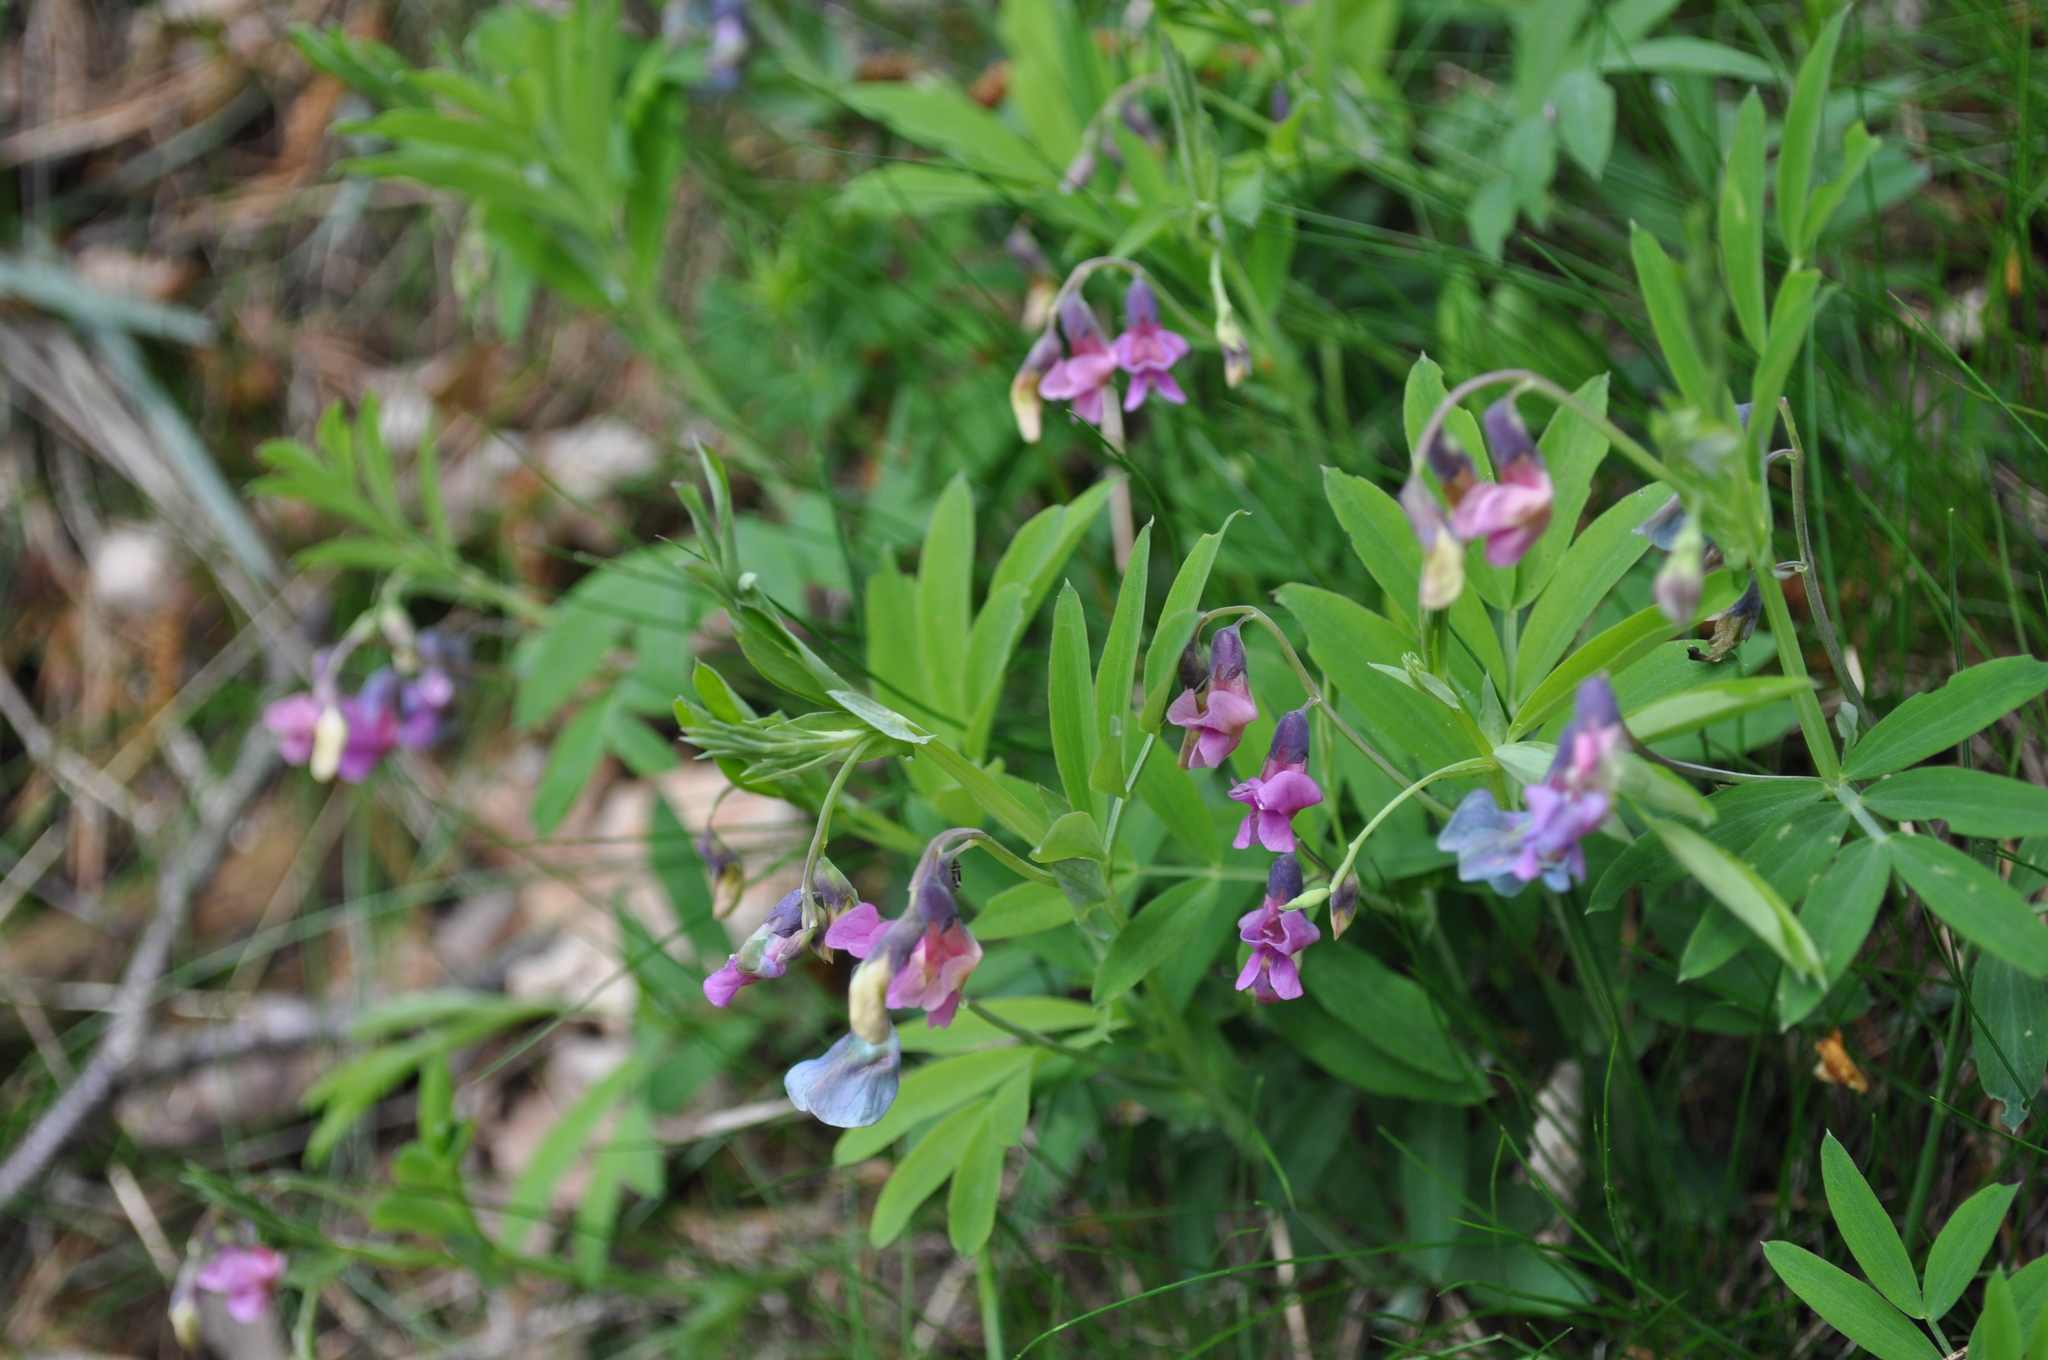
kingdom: Plantae
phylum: Tracheophyta
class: Magnoliopsida
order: Fabales
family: Fabaceae
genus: Lathyrus
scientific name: Lathyrus linifolius
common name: Bitter-vetch
